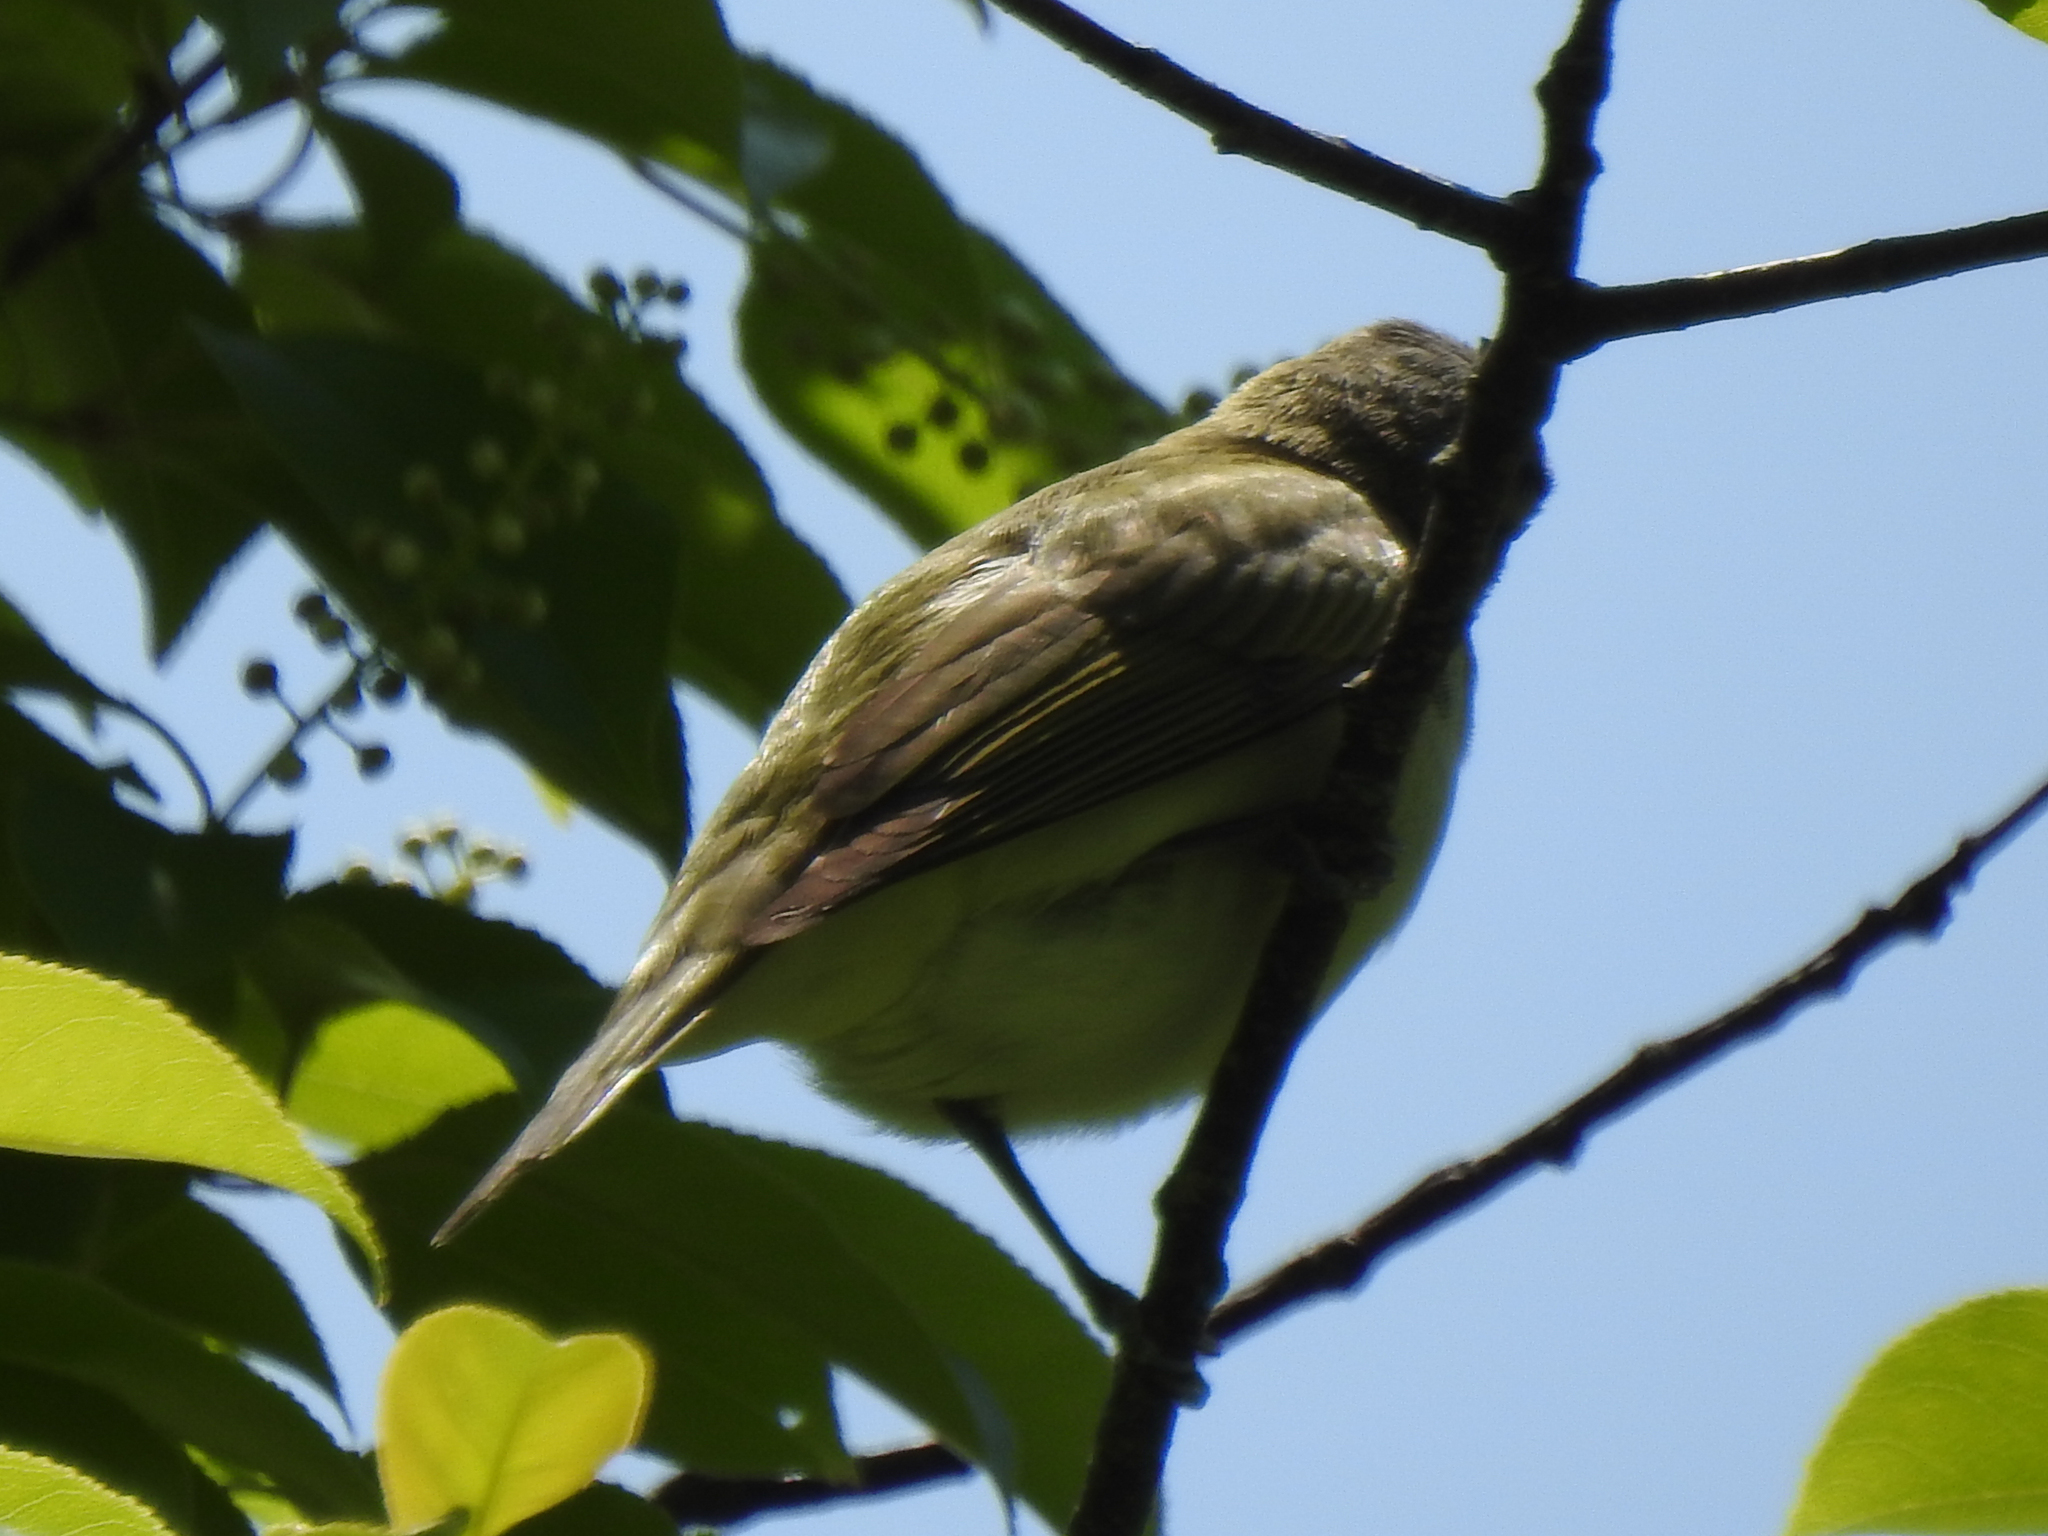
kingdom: Animalia
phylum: Chordata
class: Aves
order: Passeriformes
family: Vireonidae
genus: Vireo
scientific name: Vireo olivaceus
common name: Red-eyed vireo
